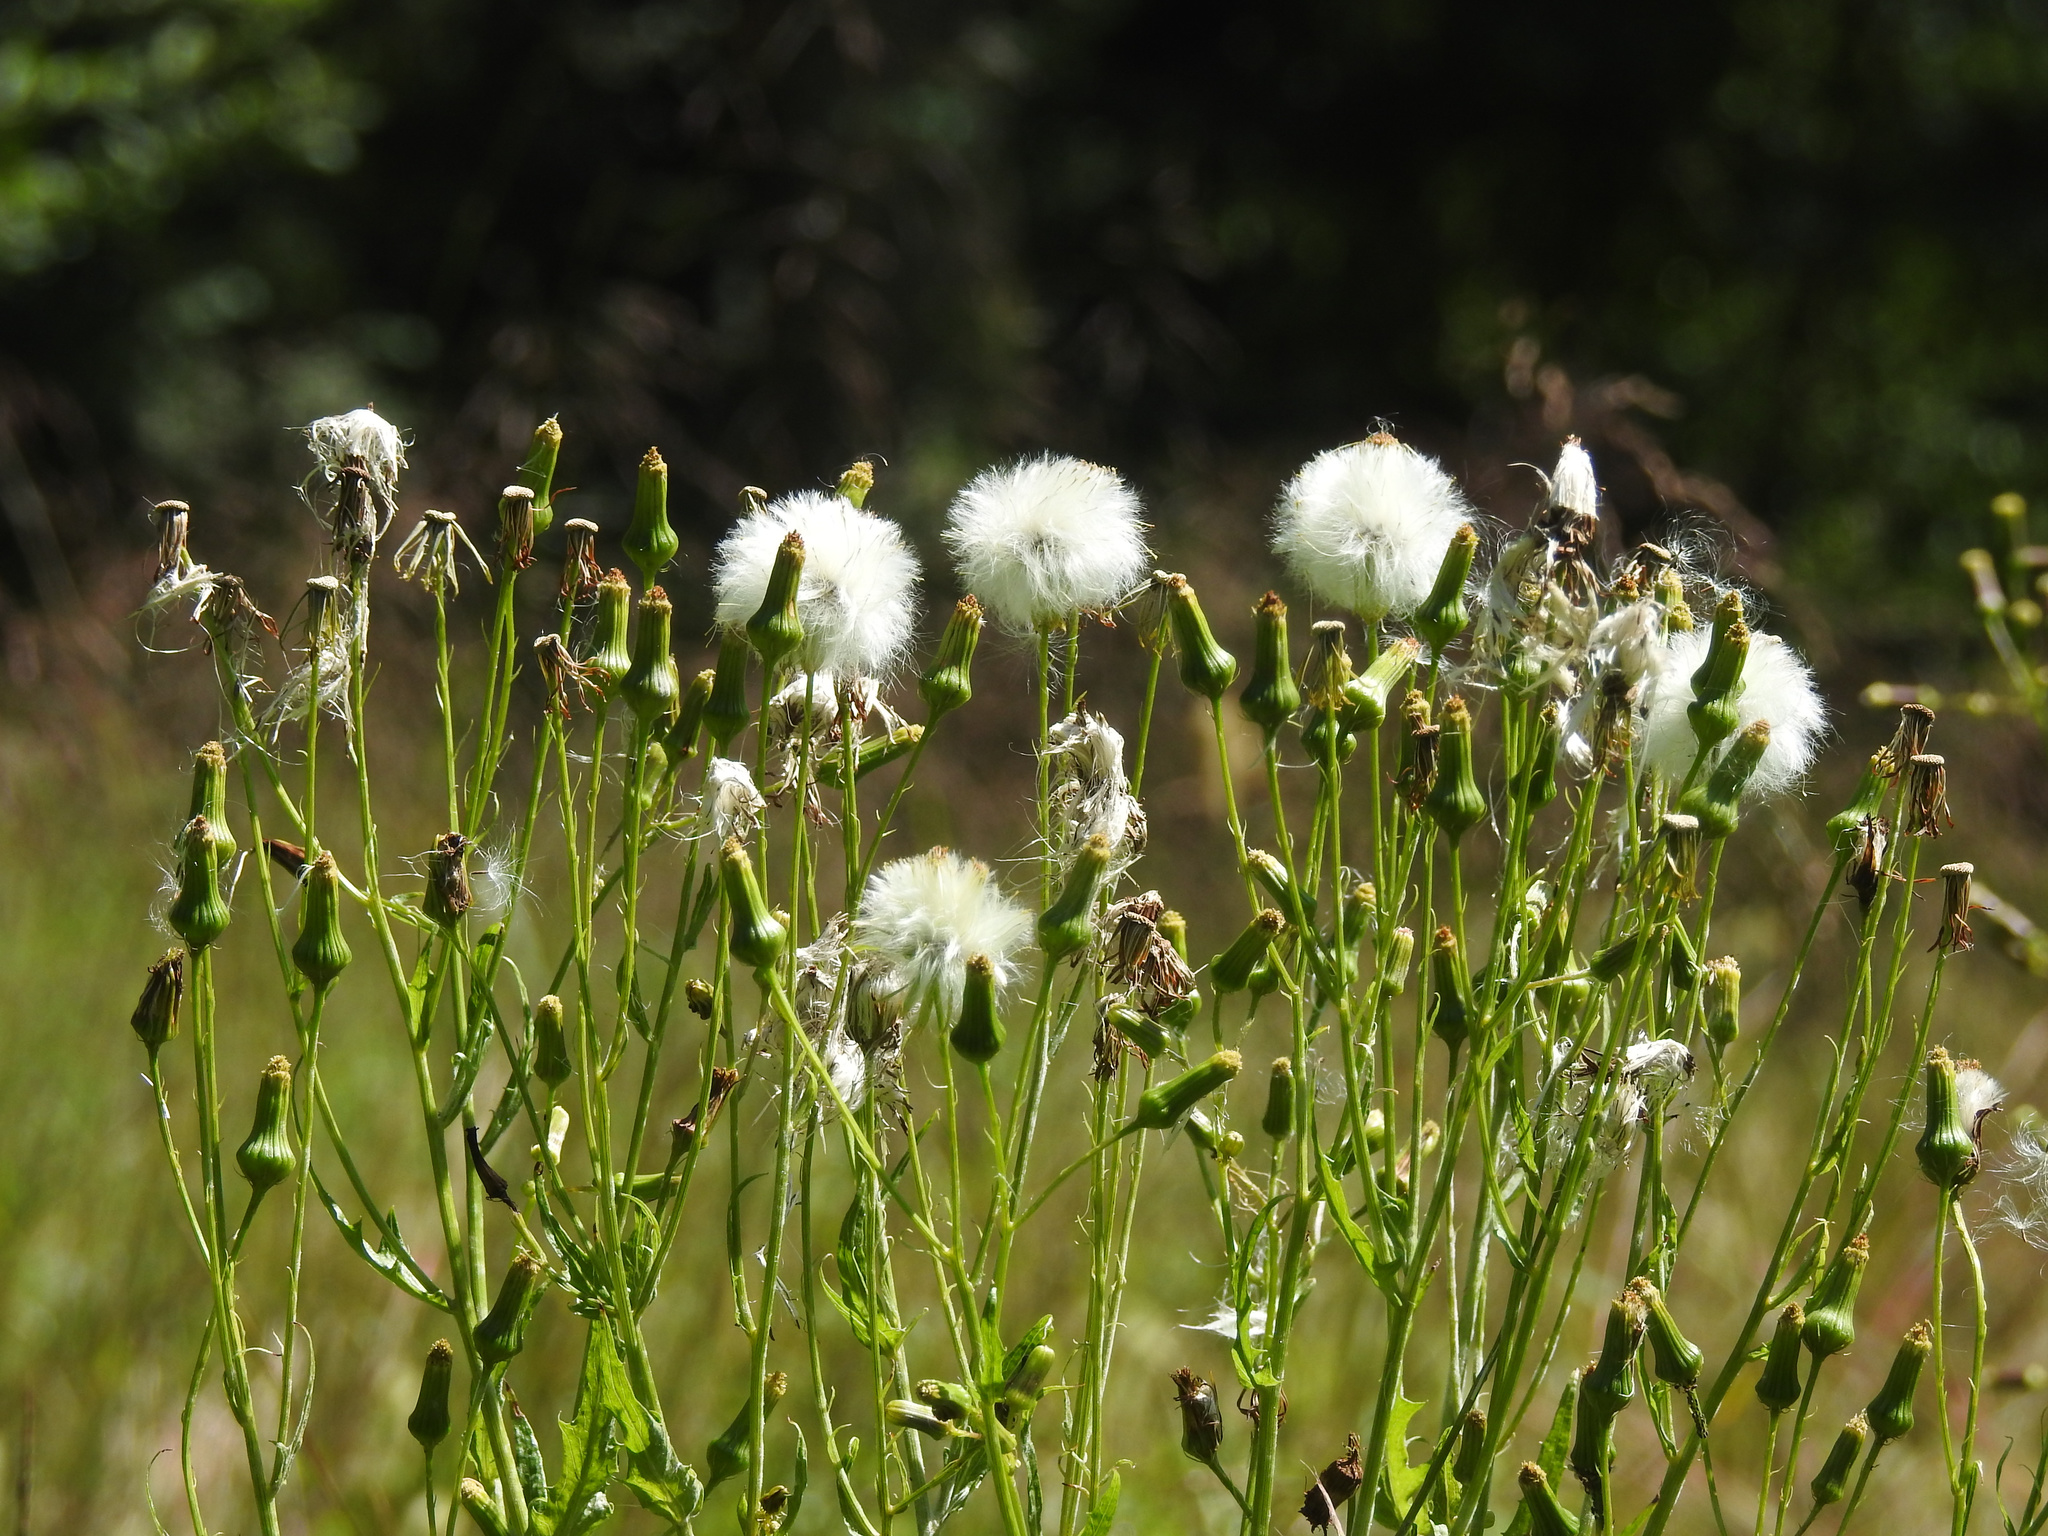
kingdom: Plantae
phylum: Tracheophyta
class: Magnoliopsida
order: Asterales
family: Asteraceae
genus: Erechtites
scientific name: Erechtites hieraciifolius
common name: American burnweed
